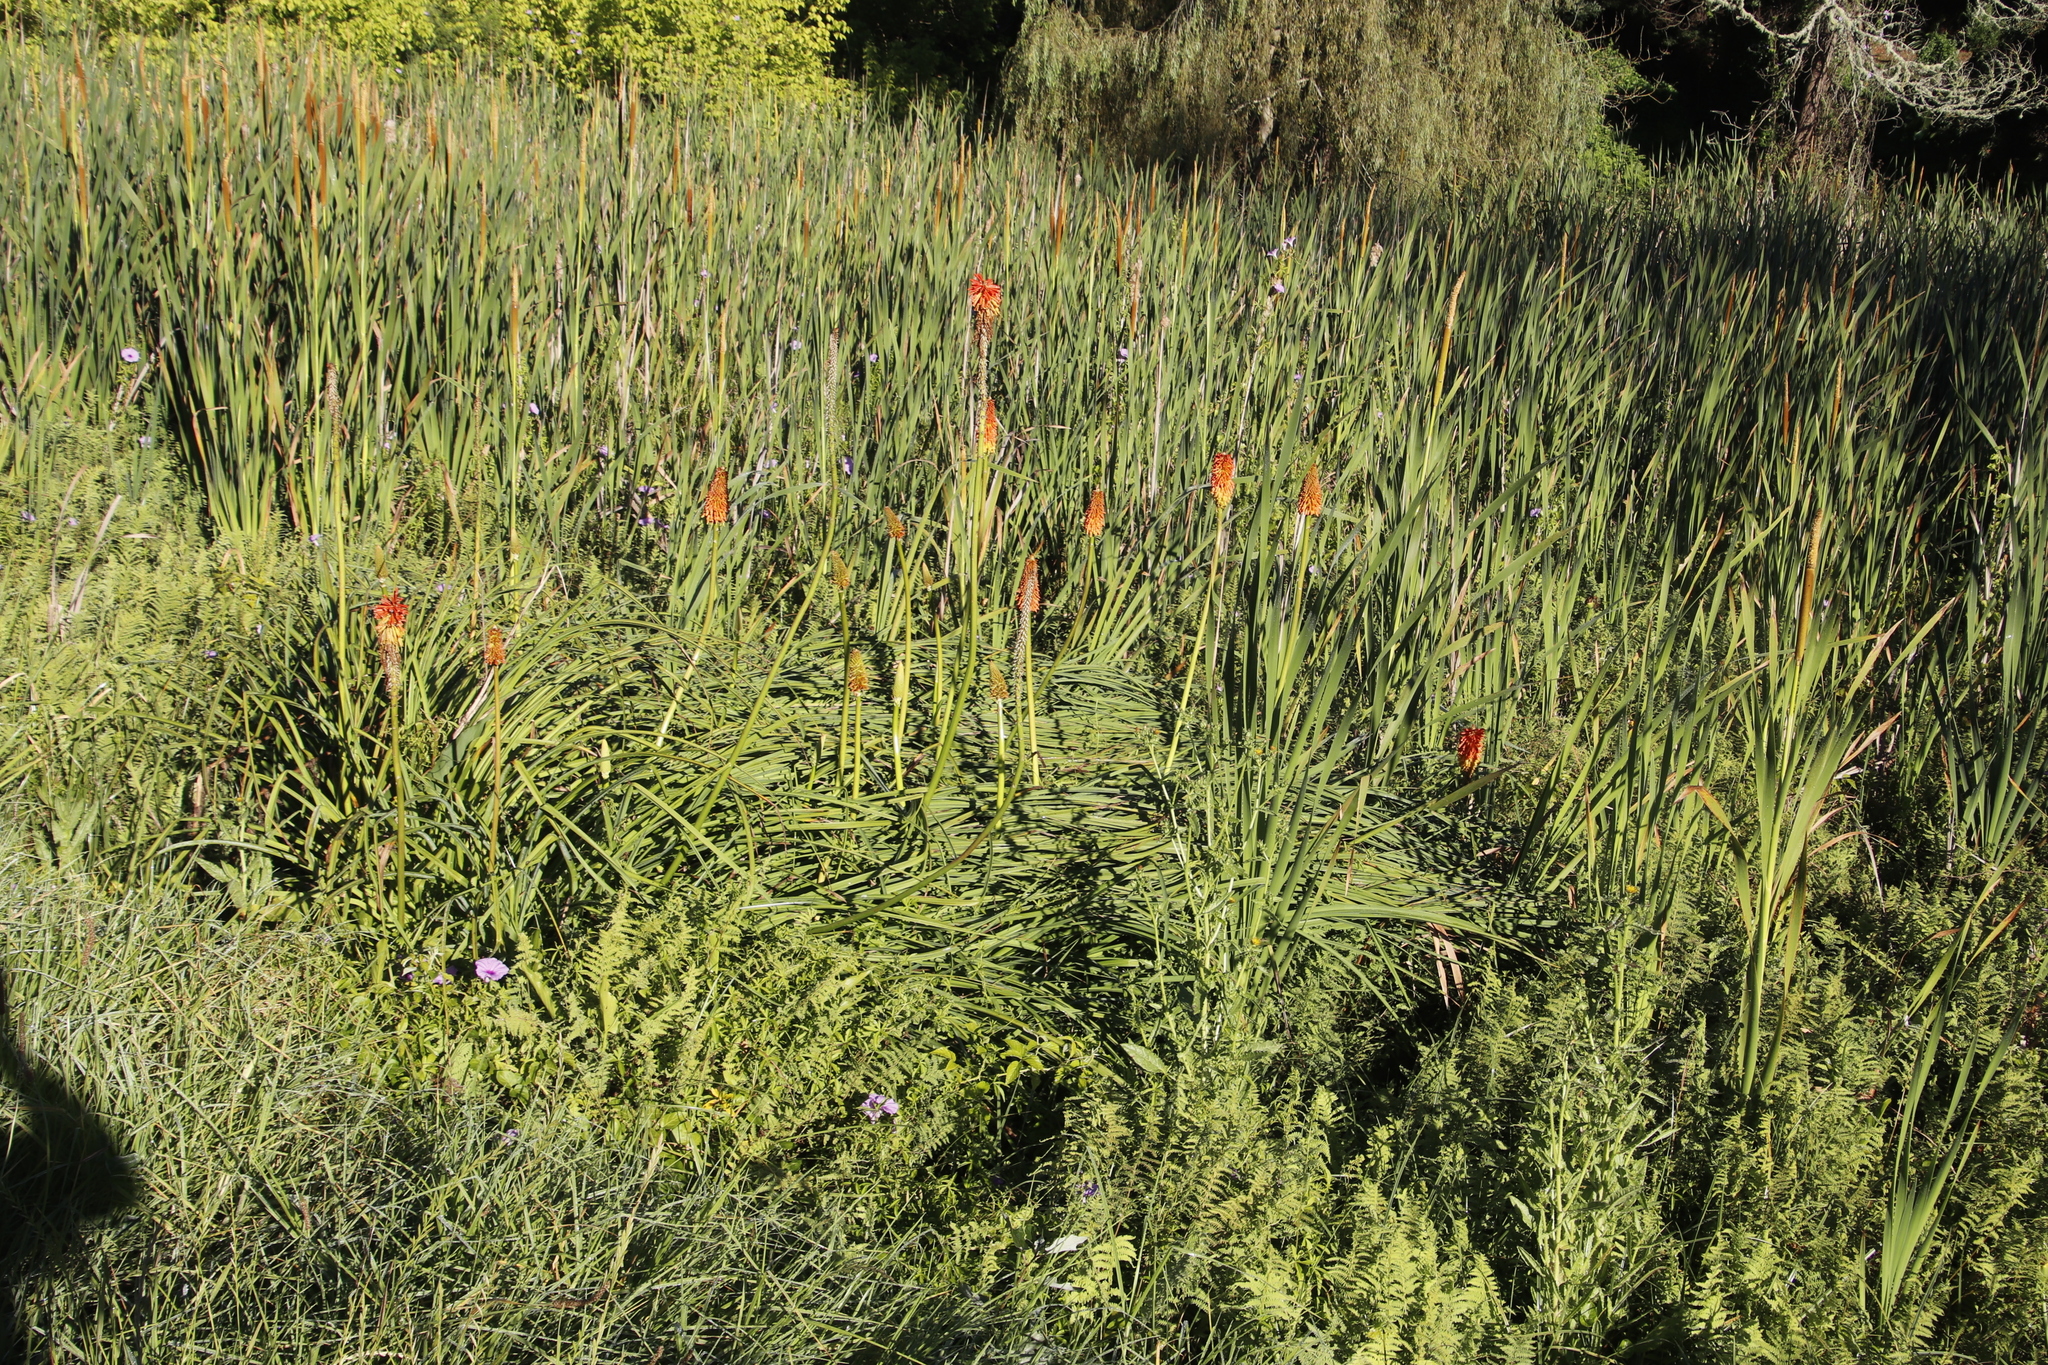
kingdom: Plantae
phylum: Tracheophyta
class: Liliopsida
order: Asparagales
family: Asphodelaceae
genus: Kniphofia
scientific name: Kniphofia uvaria
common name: Red-hot-poker
